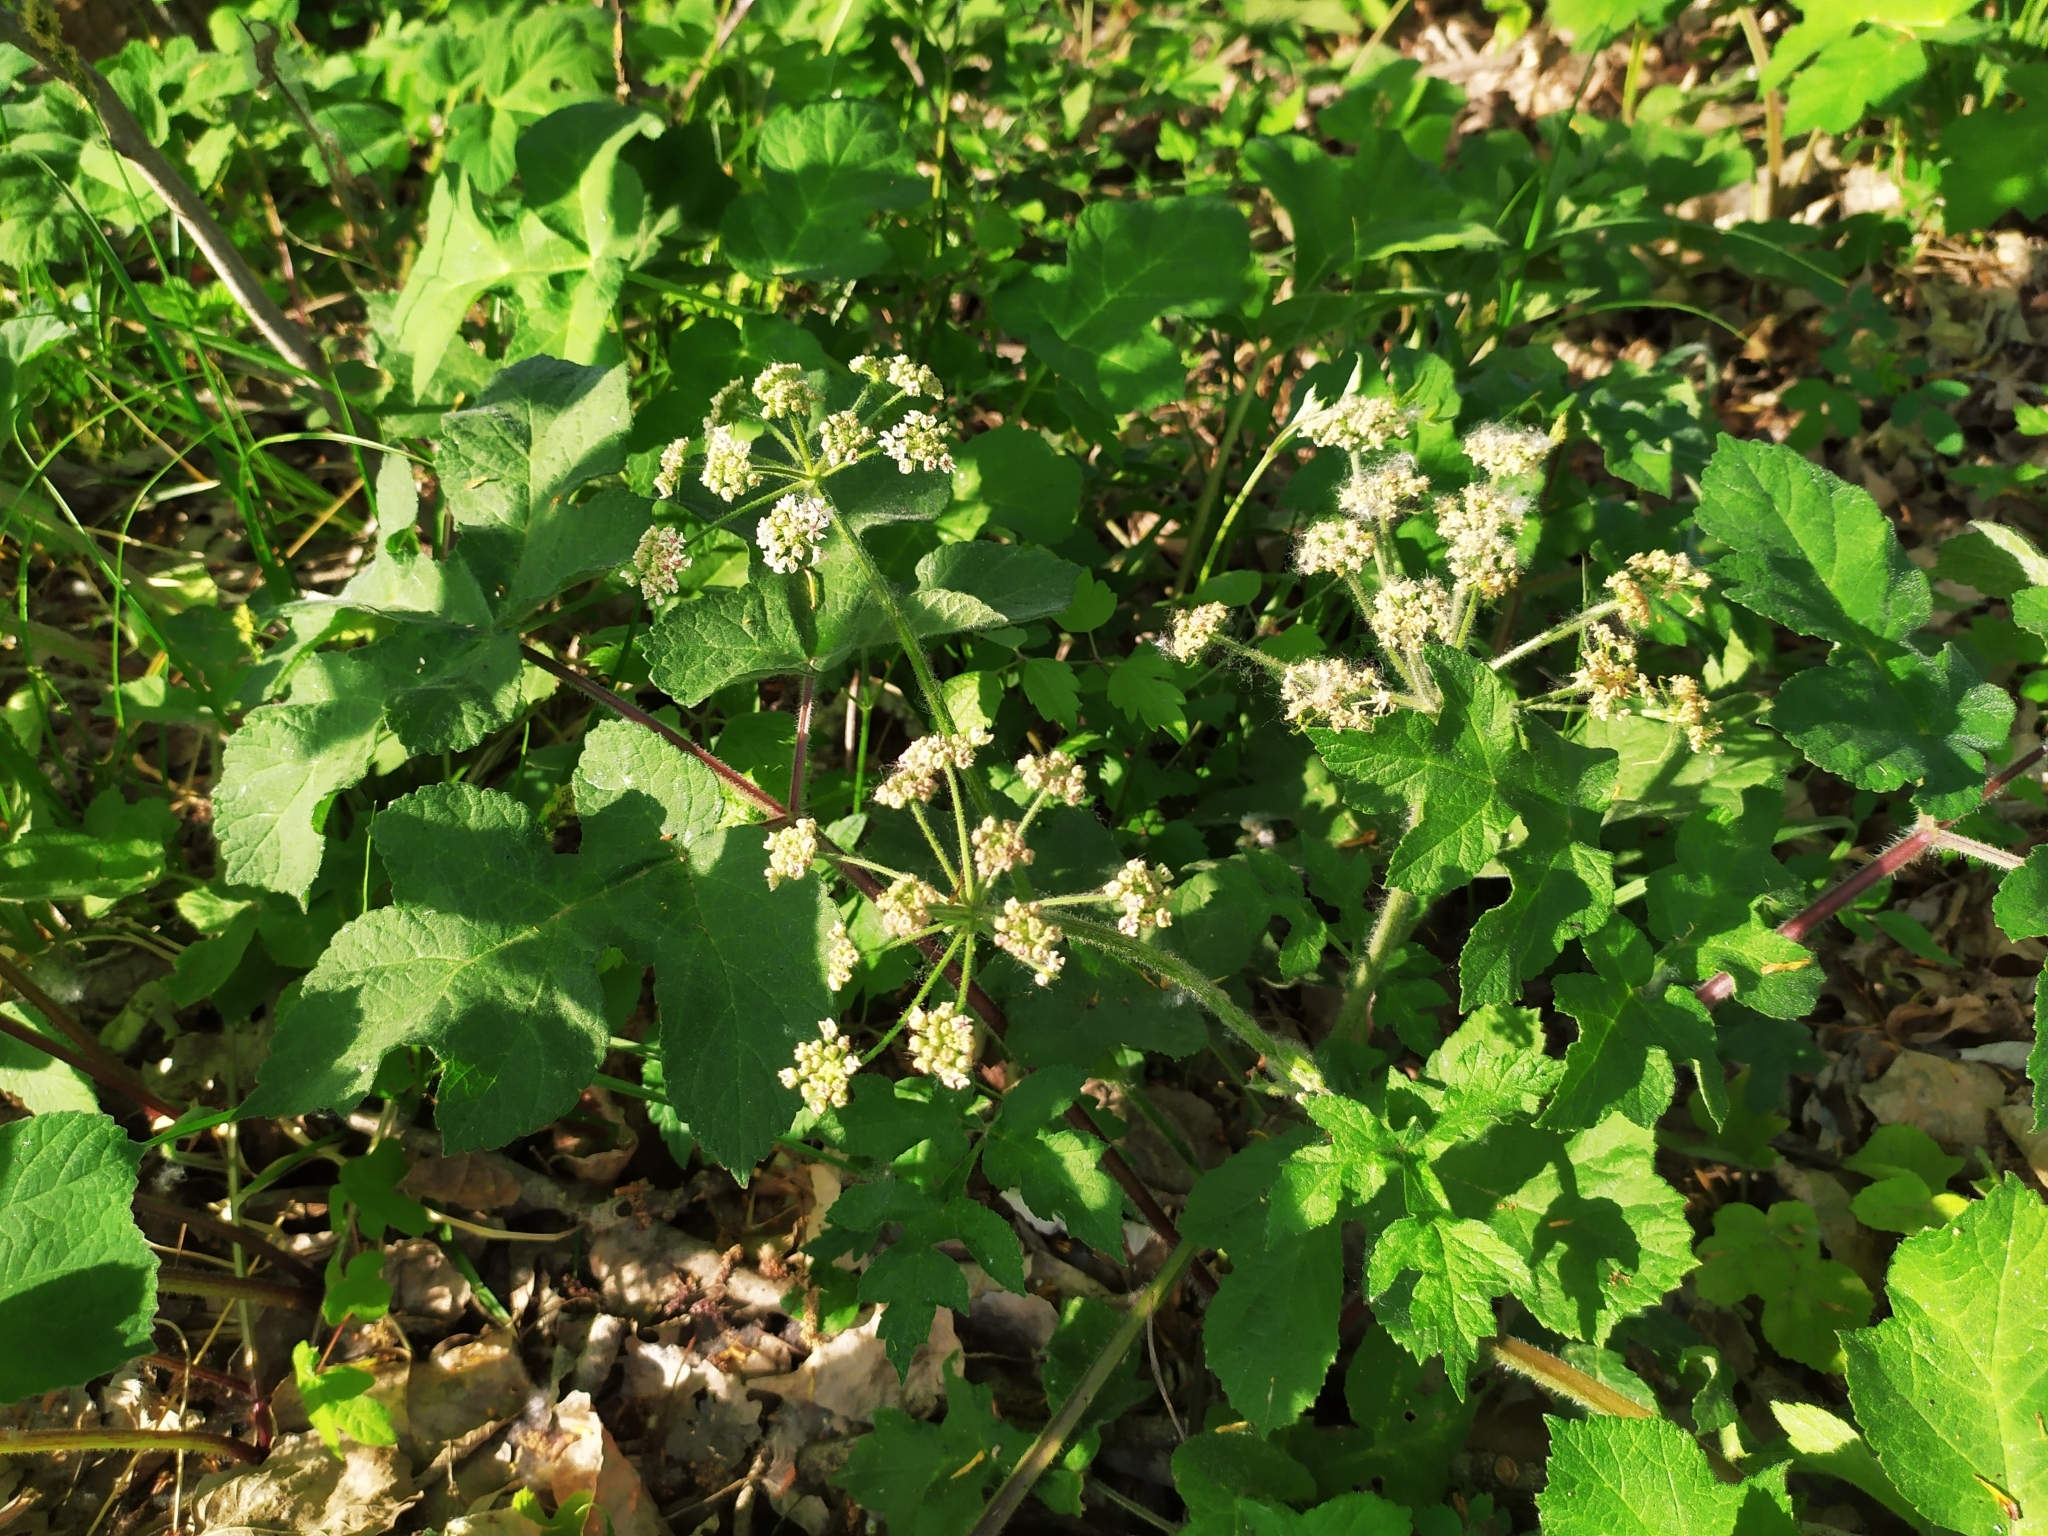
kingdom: Plantae
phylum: Tracheophyta
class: Magnoliopsida
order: Apiales
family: Apiaceae
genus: Heracleum
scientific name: Heracleum sphondylium
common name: Hogweed
